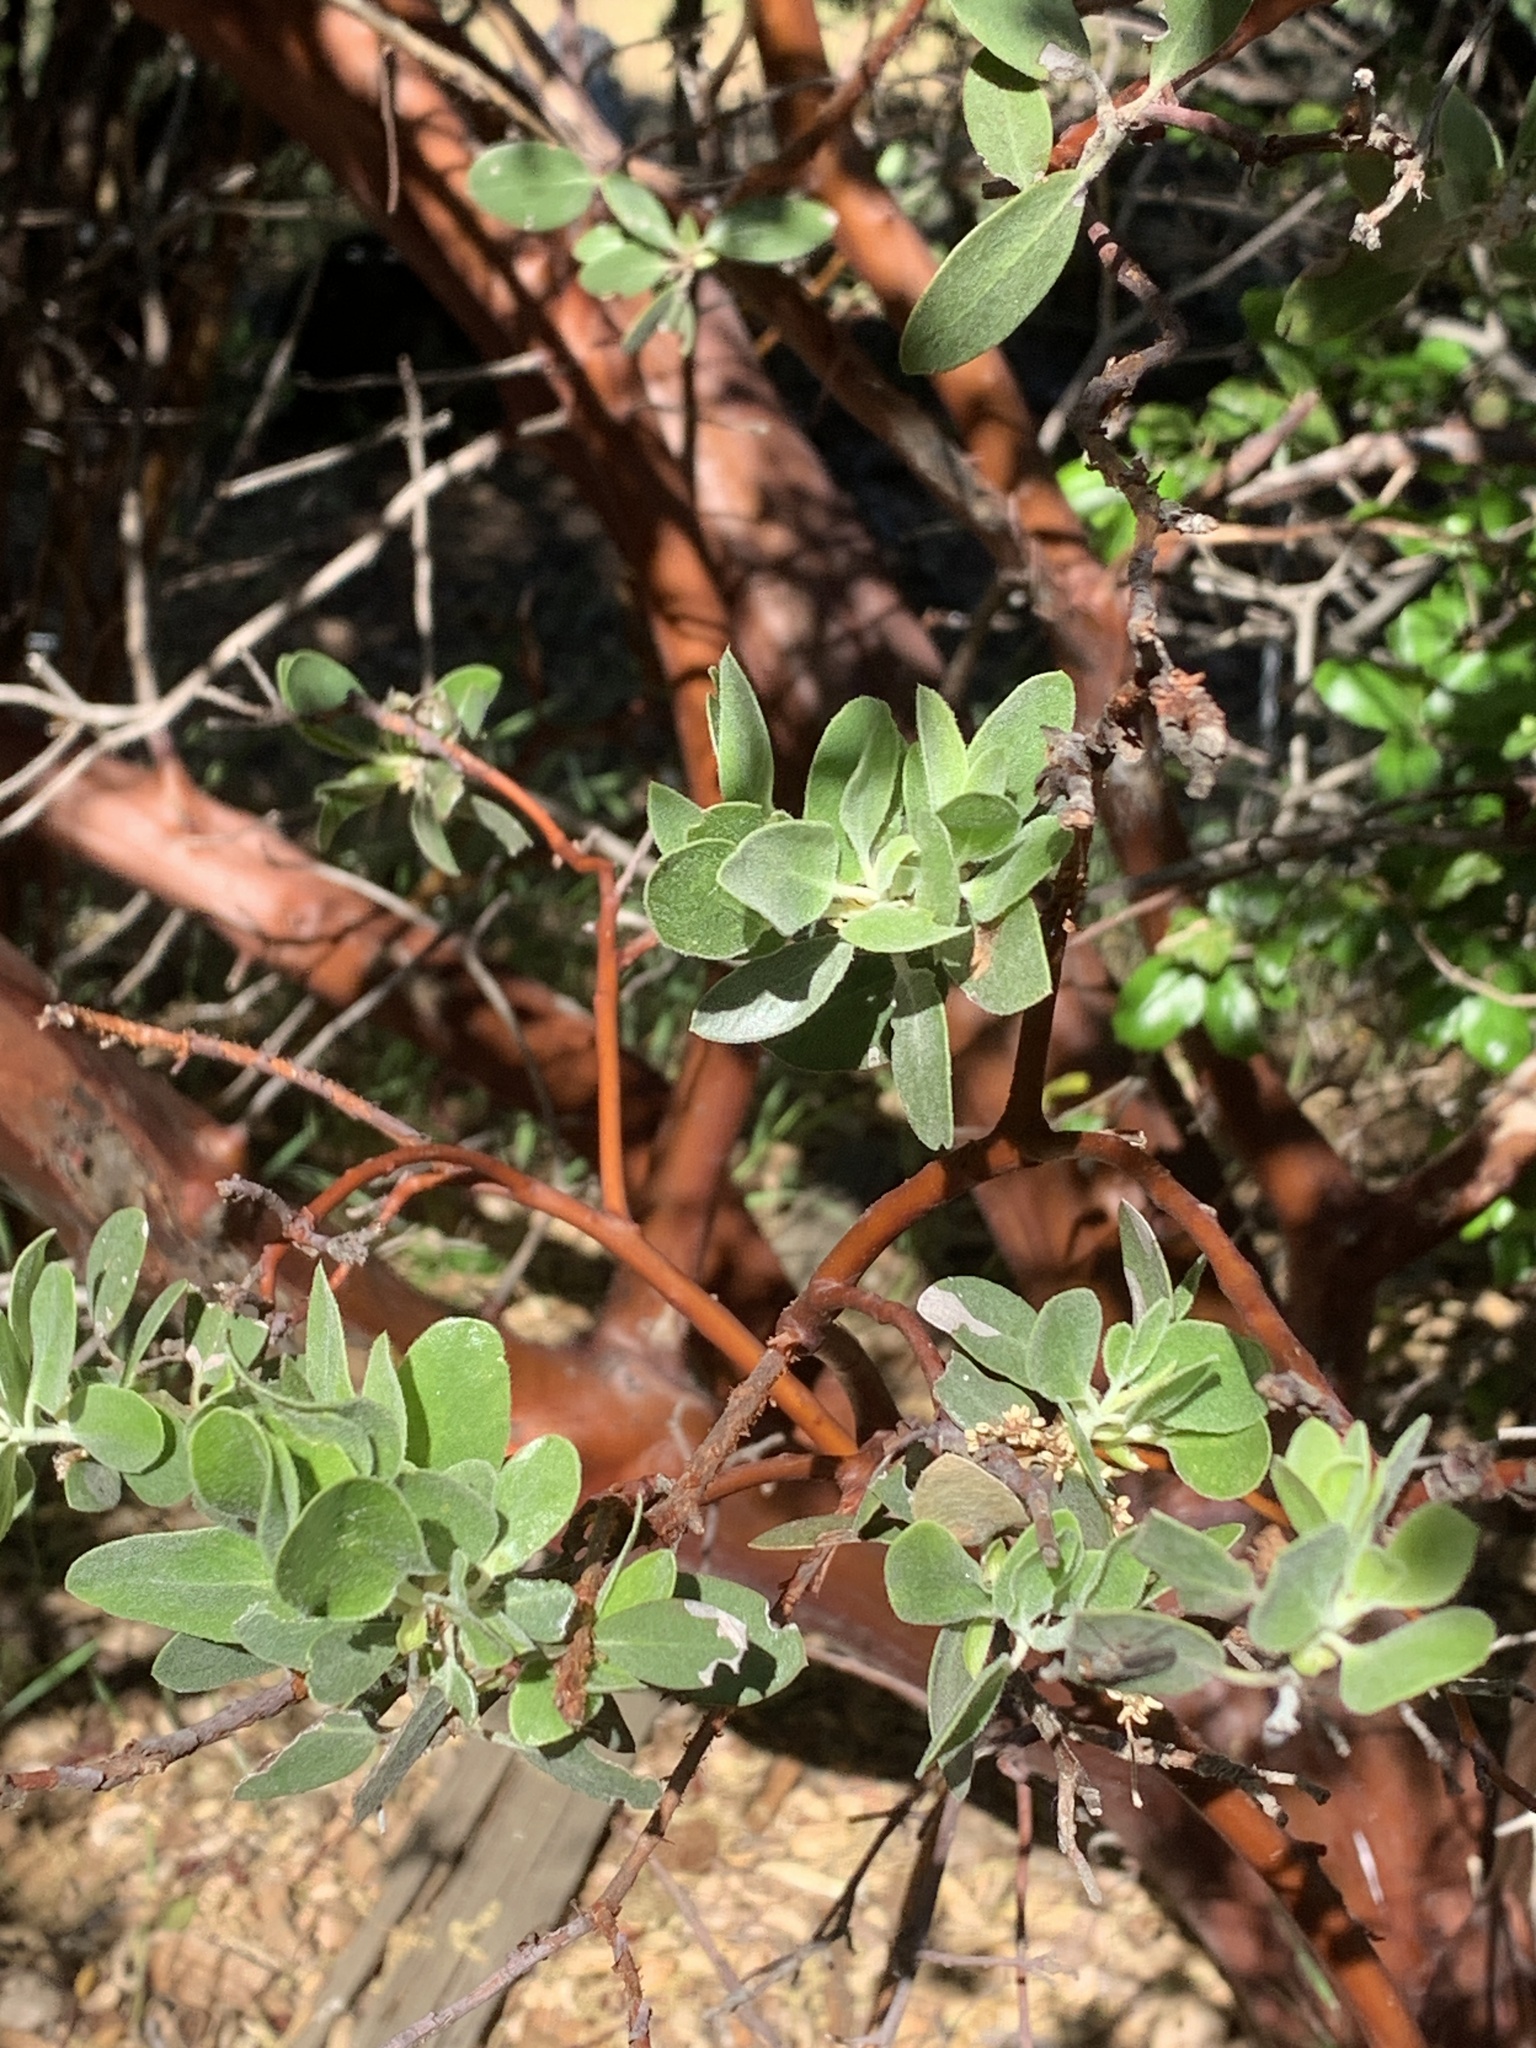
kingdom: Plantae
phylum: Tracheophyta
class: Magnoliopsida
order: Ericales
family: Ericaceae
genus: Arctostaphylos
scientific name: Arctostaphylos pungens
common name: Mexican manzanita
